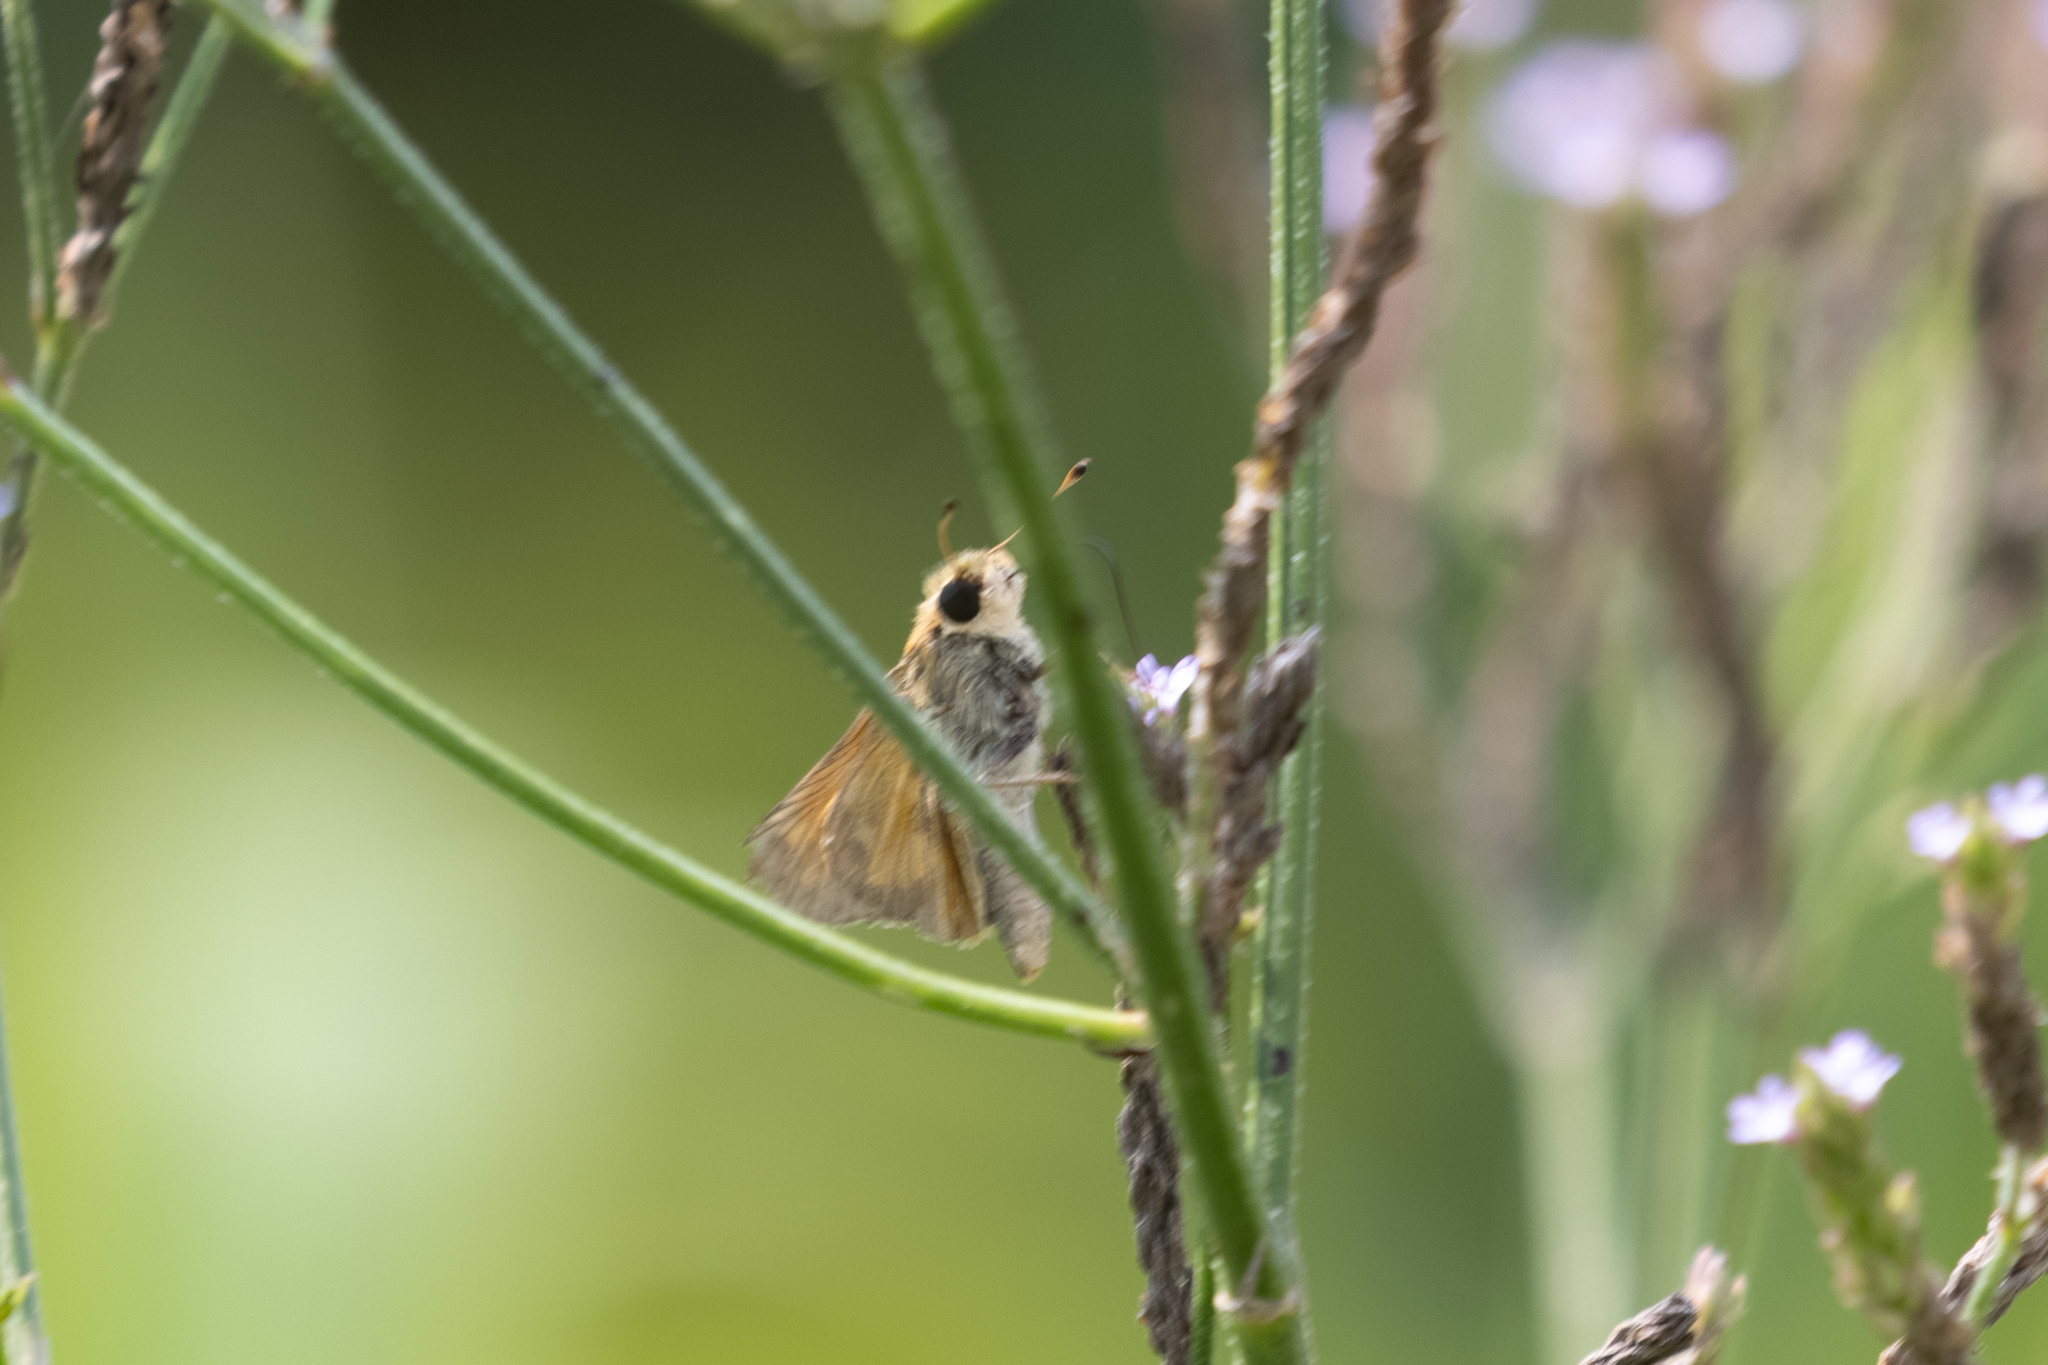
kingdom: Animalia
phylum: Arthropoda
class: Insecta
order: Lepidoptera
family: Hesperiidae
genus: Atalopedes
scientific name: Atalopedes
